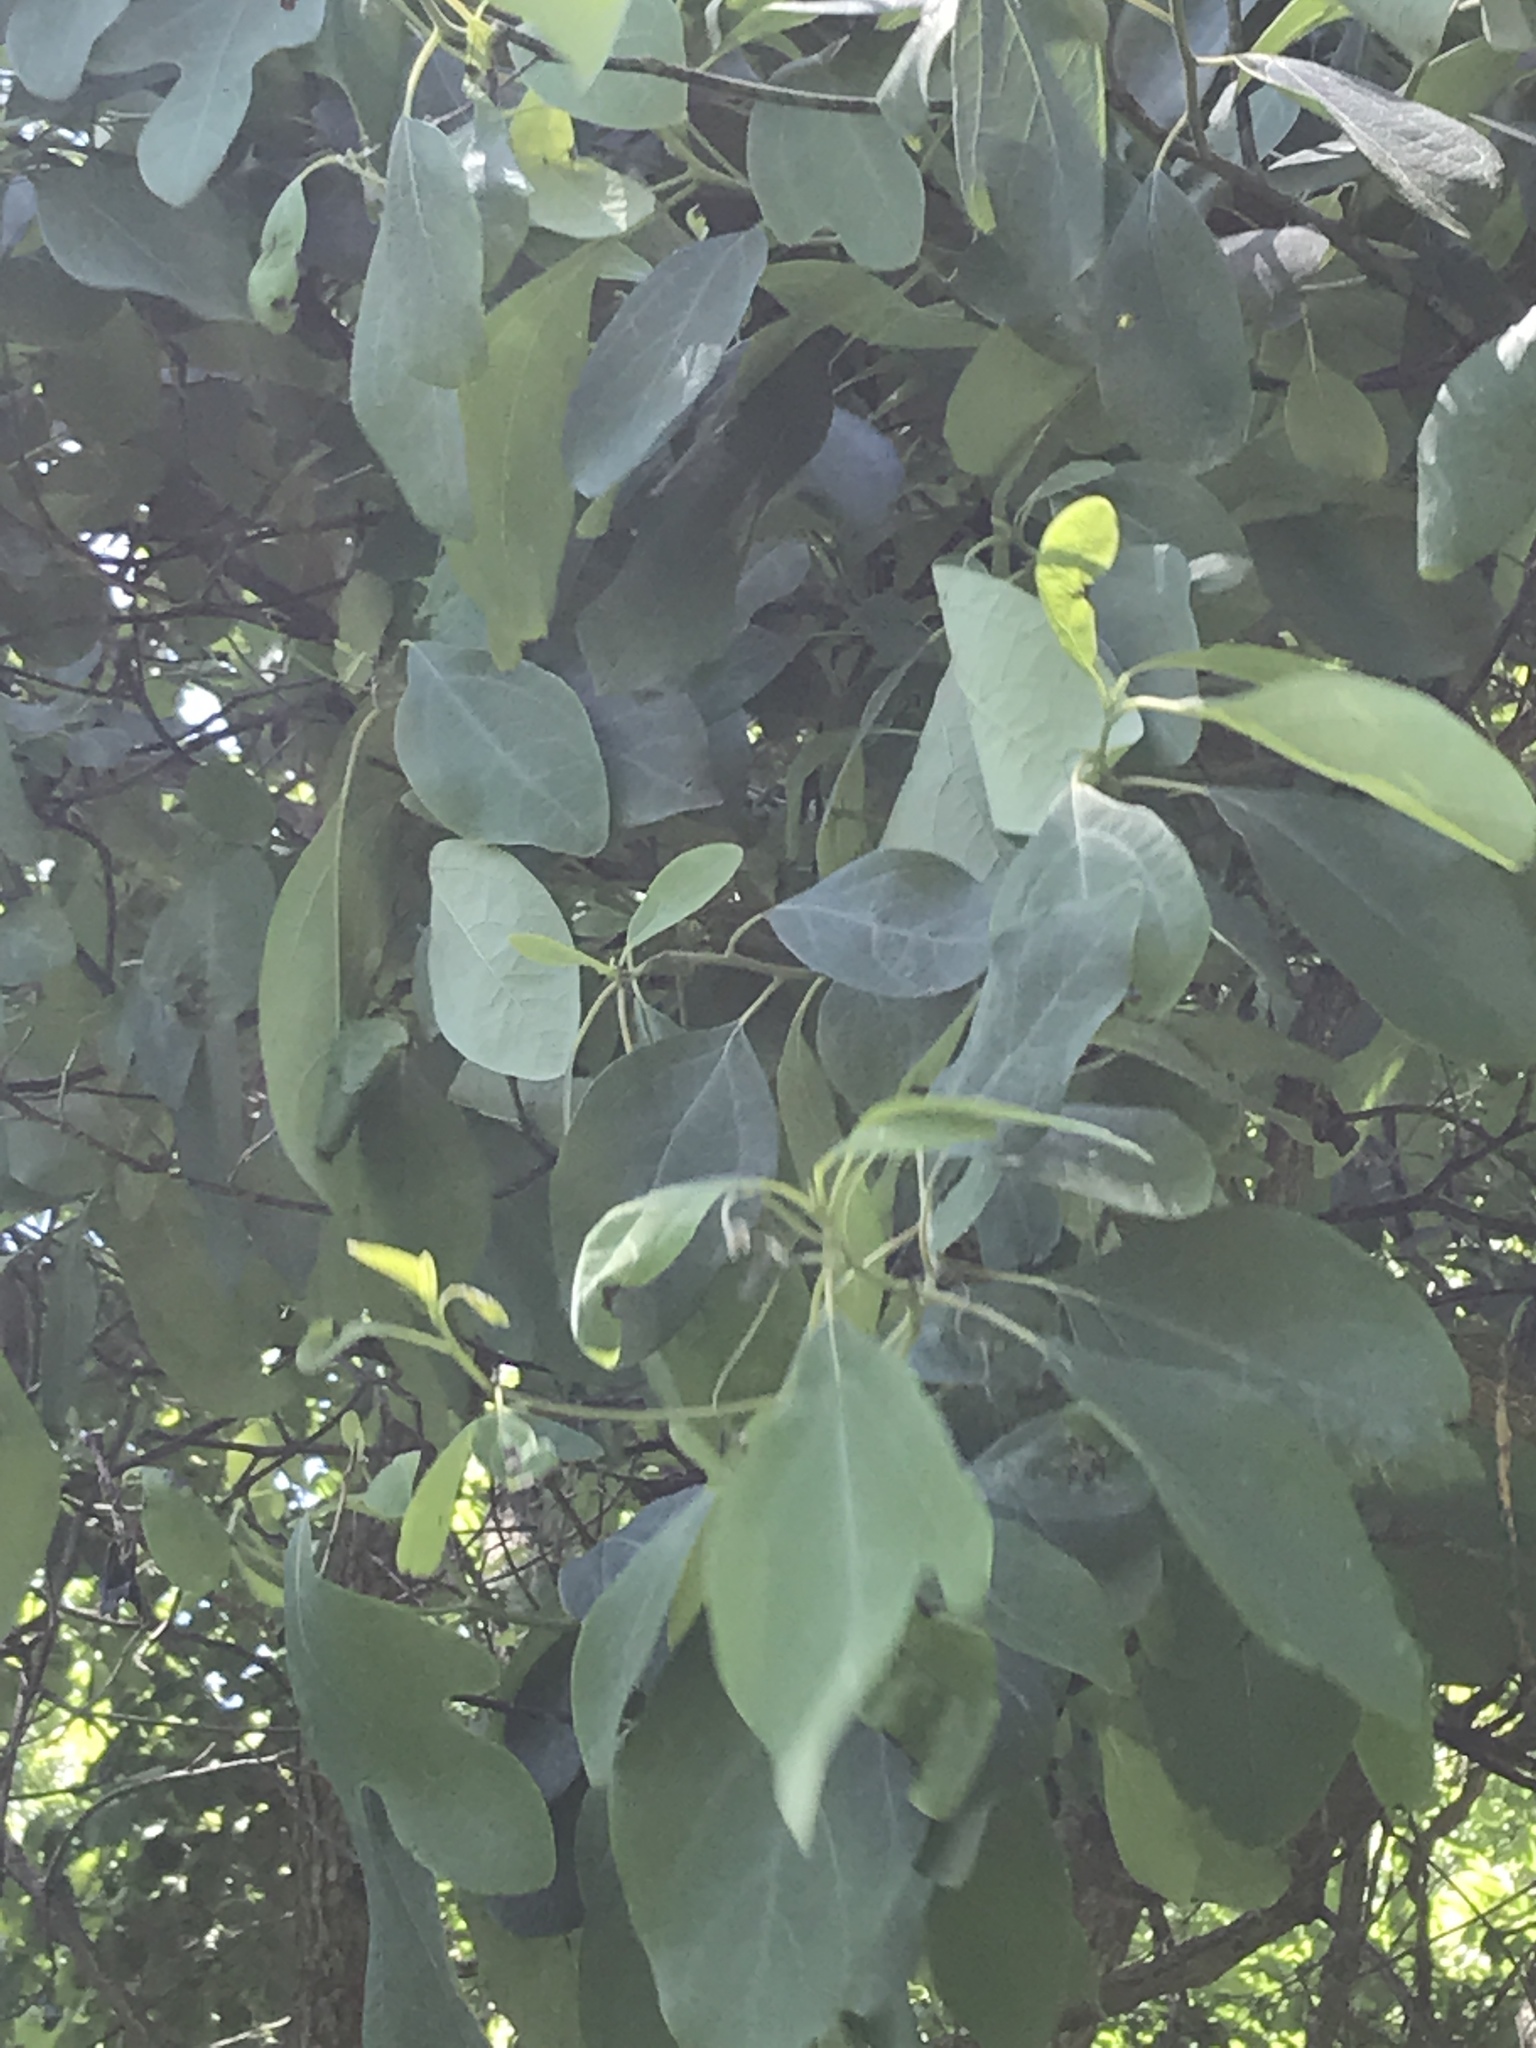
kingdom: Plantae
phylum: Tracheophyta
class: Magnoliopsida
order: Laurales
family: Lauraceae
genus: Sassafras
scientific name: Sassafras albidum
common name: Sassafras
